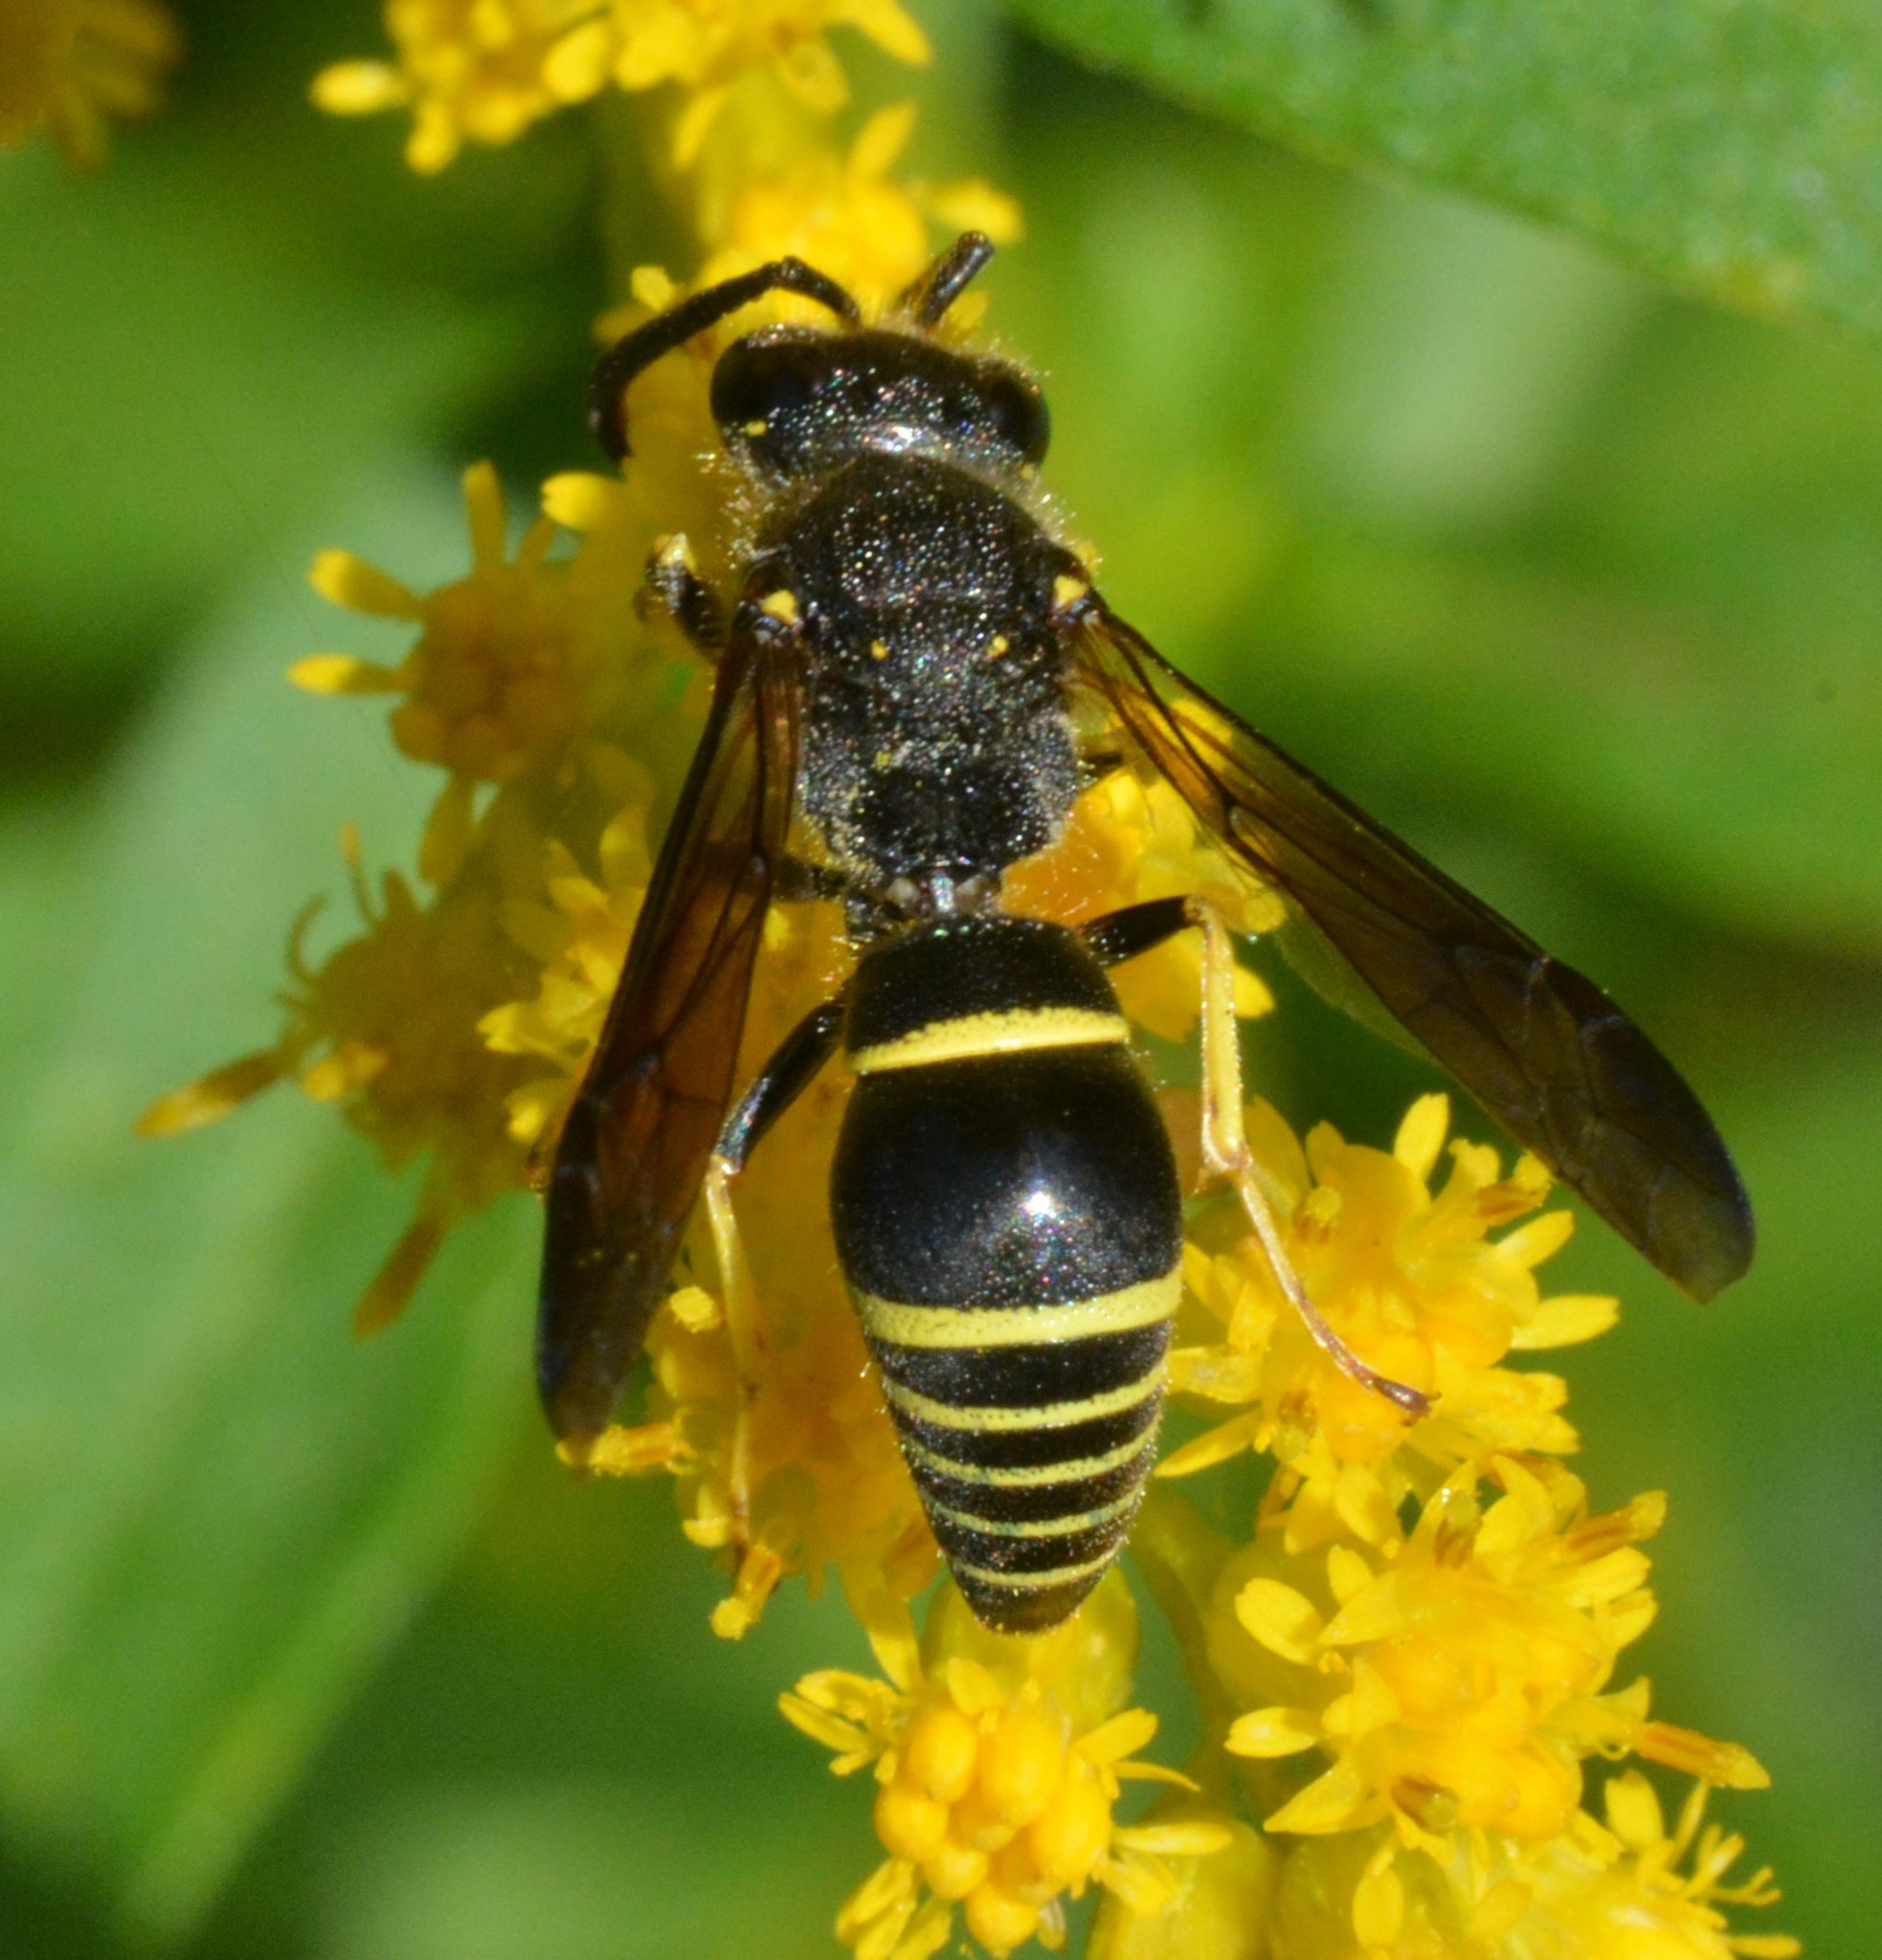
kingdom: Animalia
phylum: Arthropoda
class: Insecta
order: Hymenoptera
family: Vespidae
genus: Ancistrocerus
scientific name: Ancistrocerus
